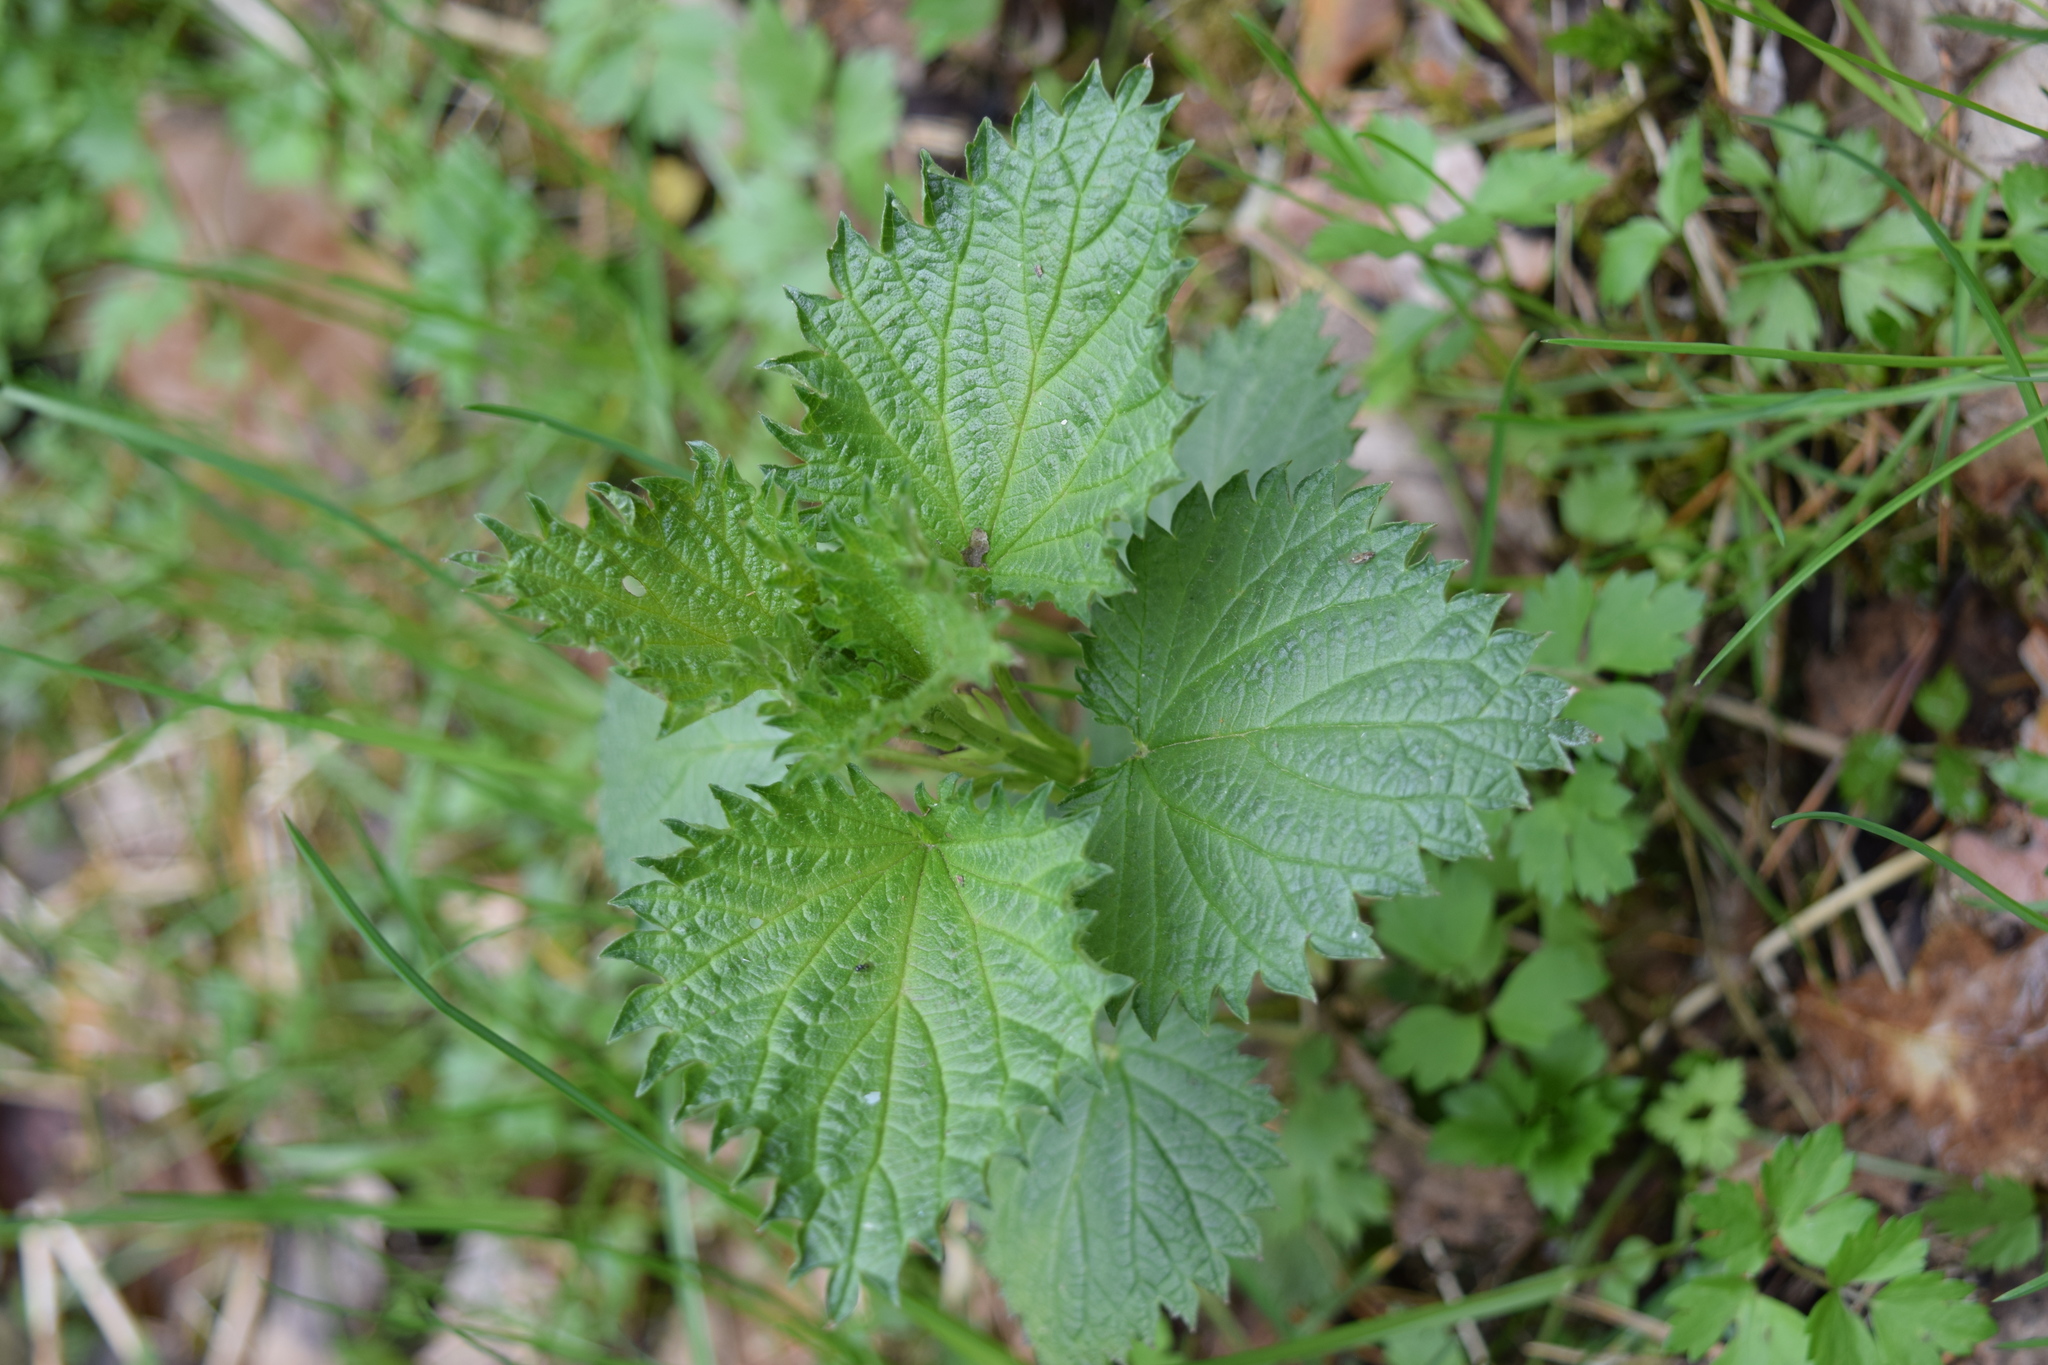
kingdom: Plantae
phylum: Tracheophyta
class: Magnoliopsida
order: Rosales
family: Urticaceae
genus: Urtica
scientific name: Urtica dioica
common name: Common nettle
